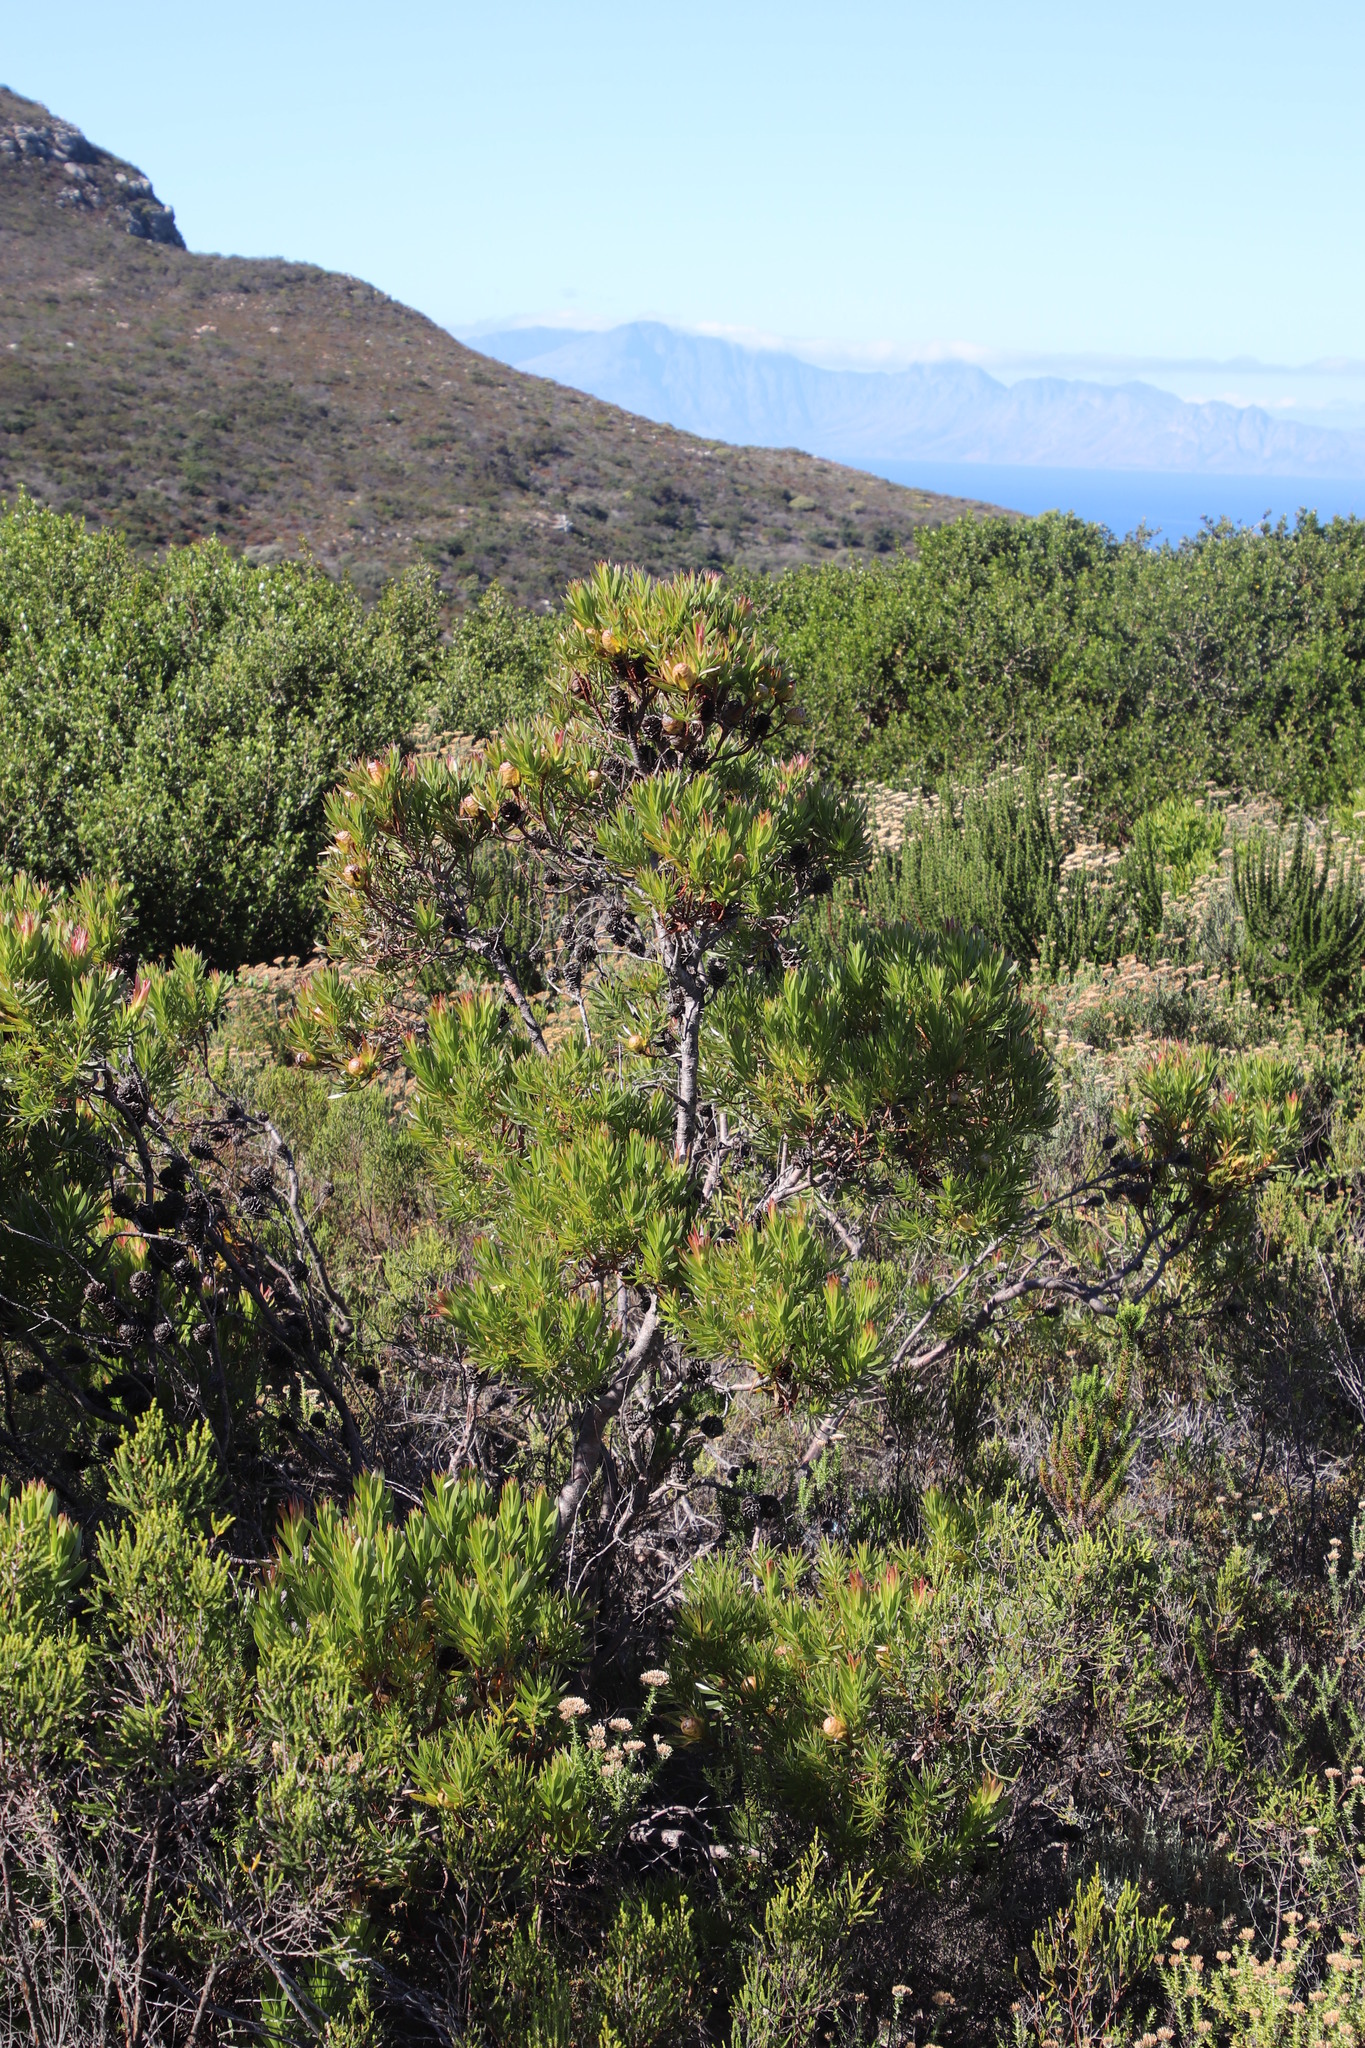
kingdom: Plantae
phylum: Tracheophyta
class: Magnoliopsida
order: Proteales
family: Proteaceae
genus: Leucadendron
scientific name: Leucadendron xanthoconus
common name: Sickle-leaf conebush
